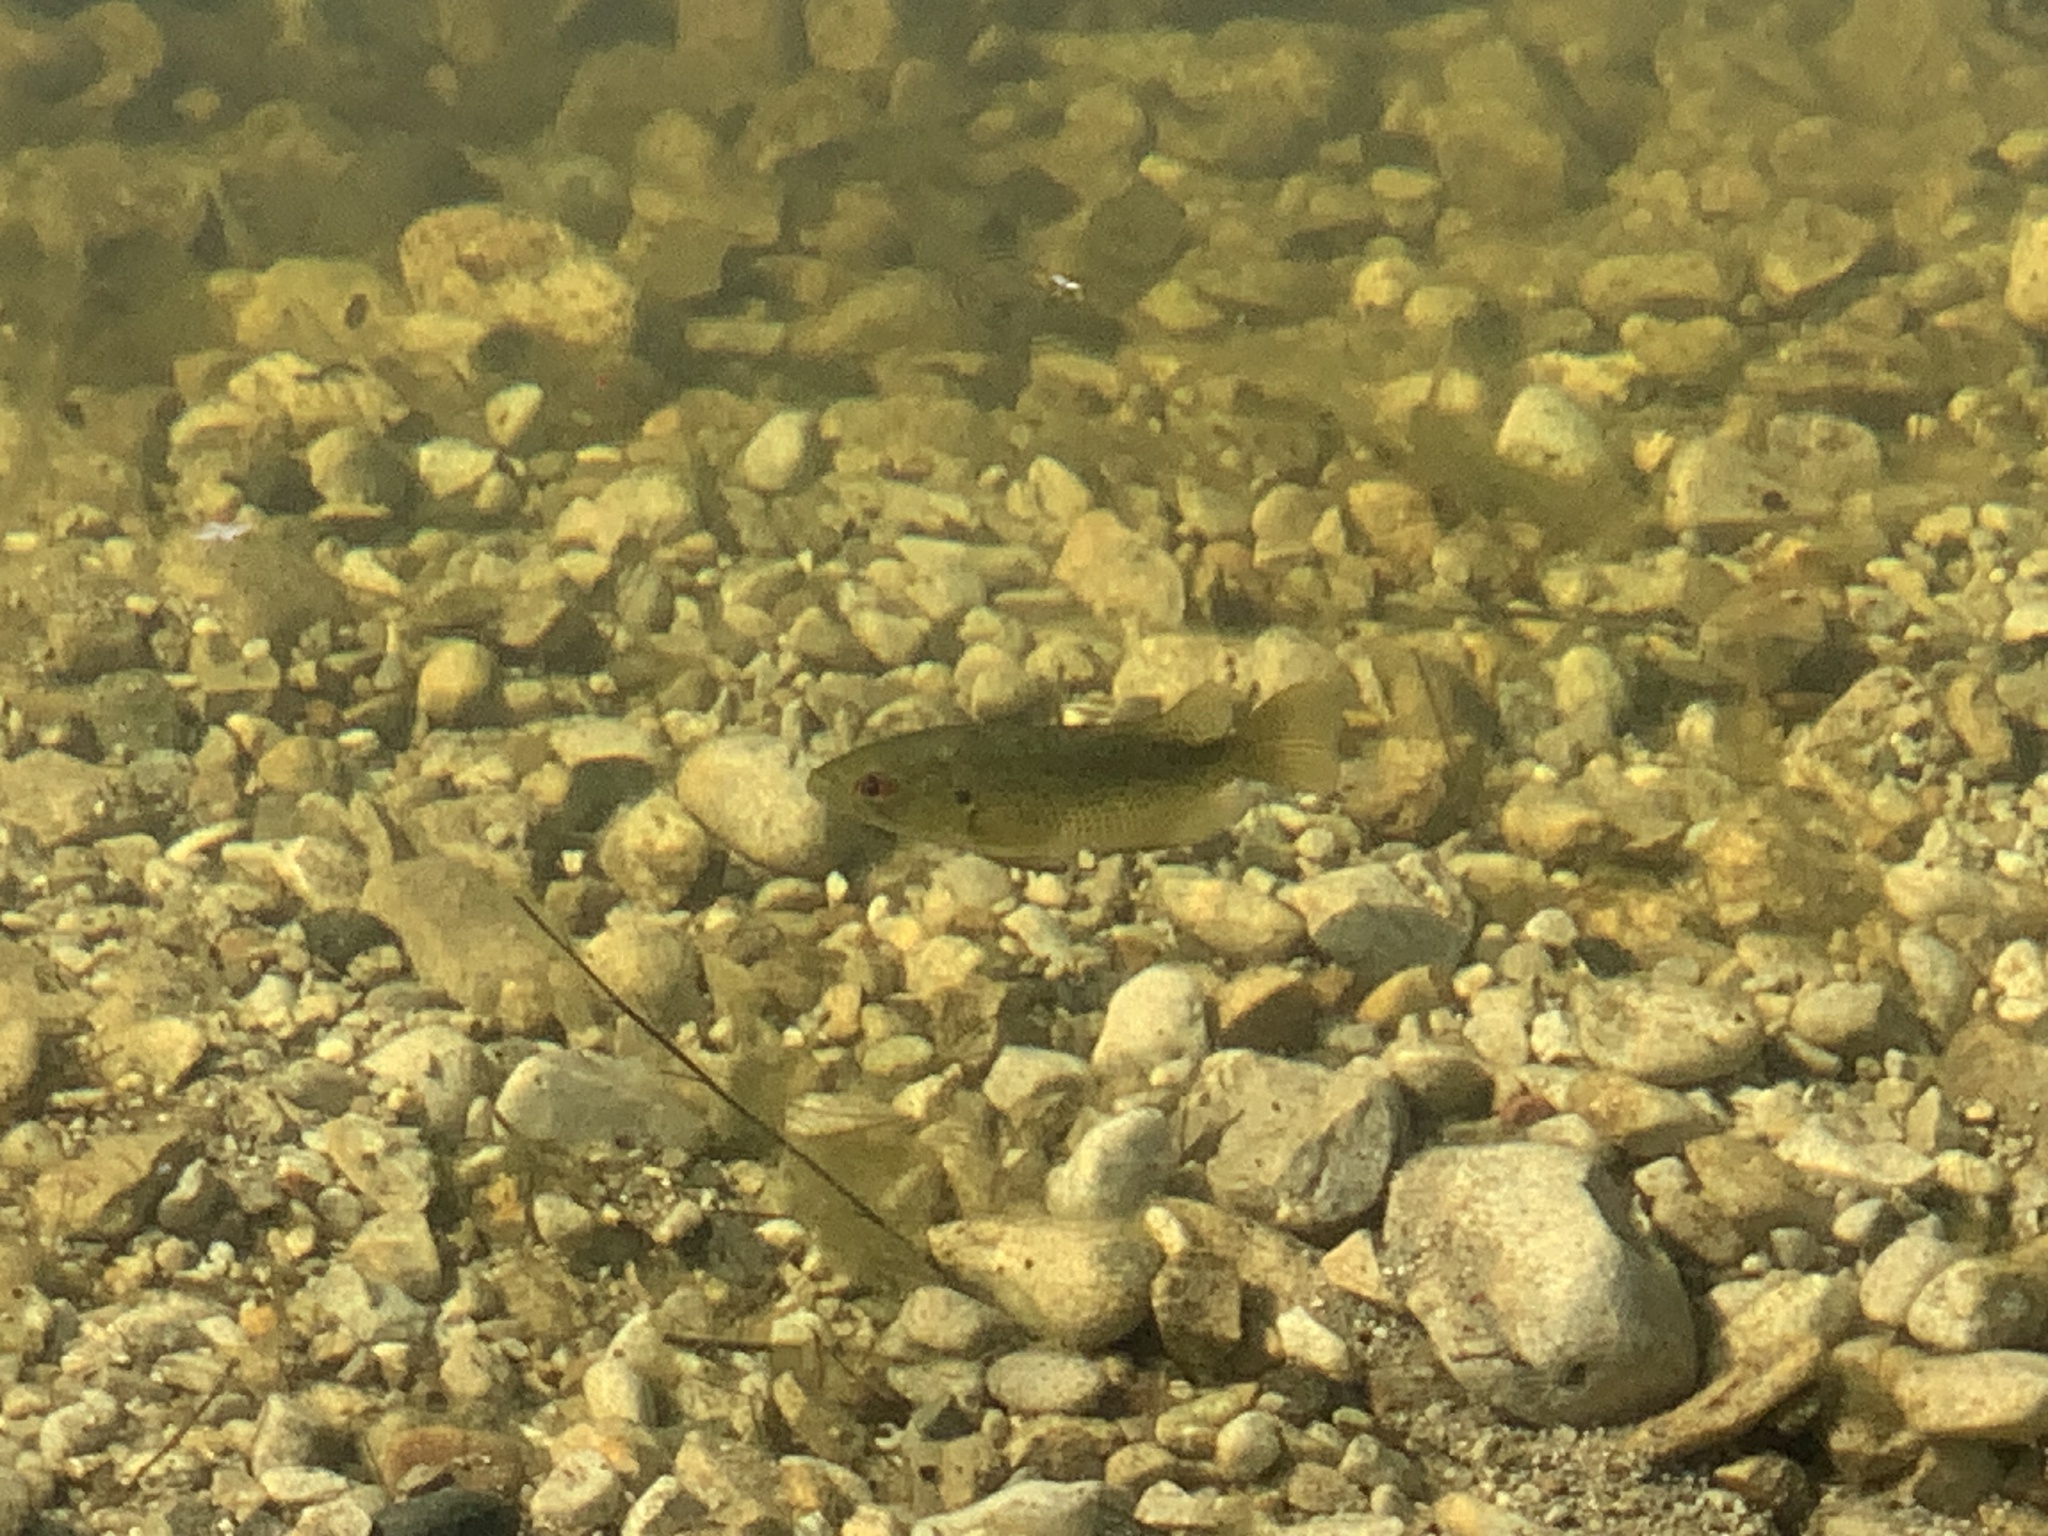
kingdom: Animalia
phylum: Chordata
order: Perciformes
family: Centrarchidae
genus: Ambloplites
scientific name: Ambloplites rupestris
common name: Rock bass
